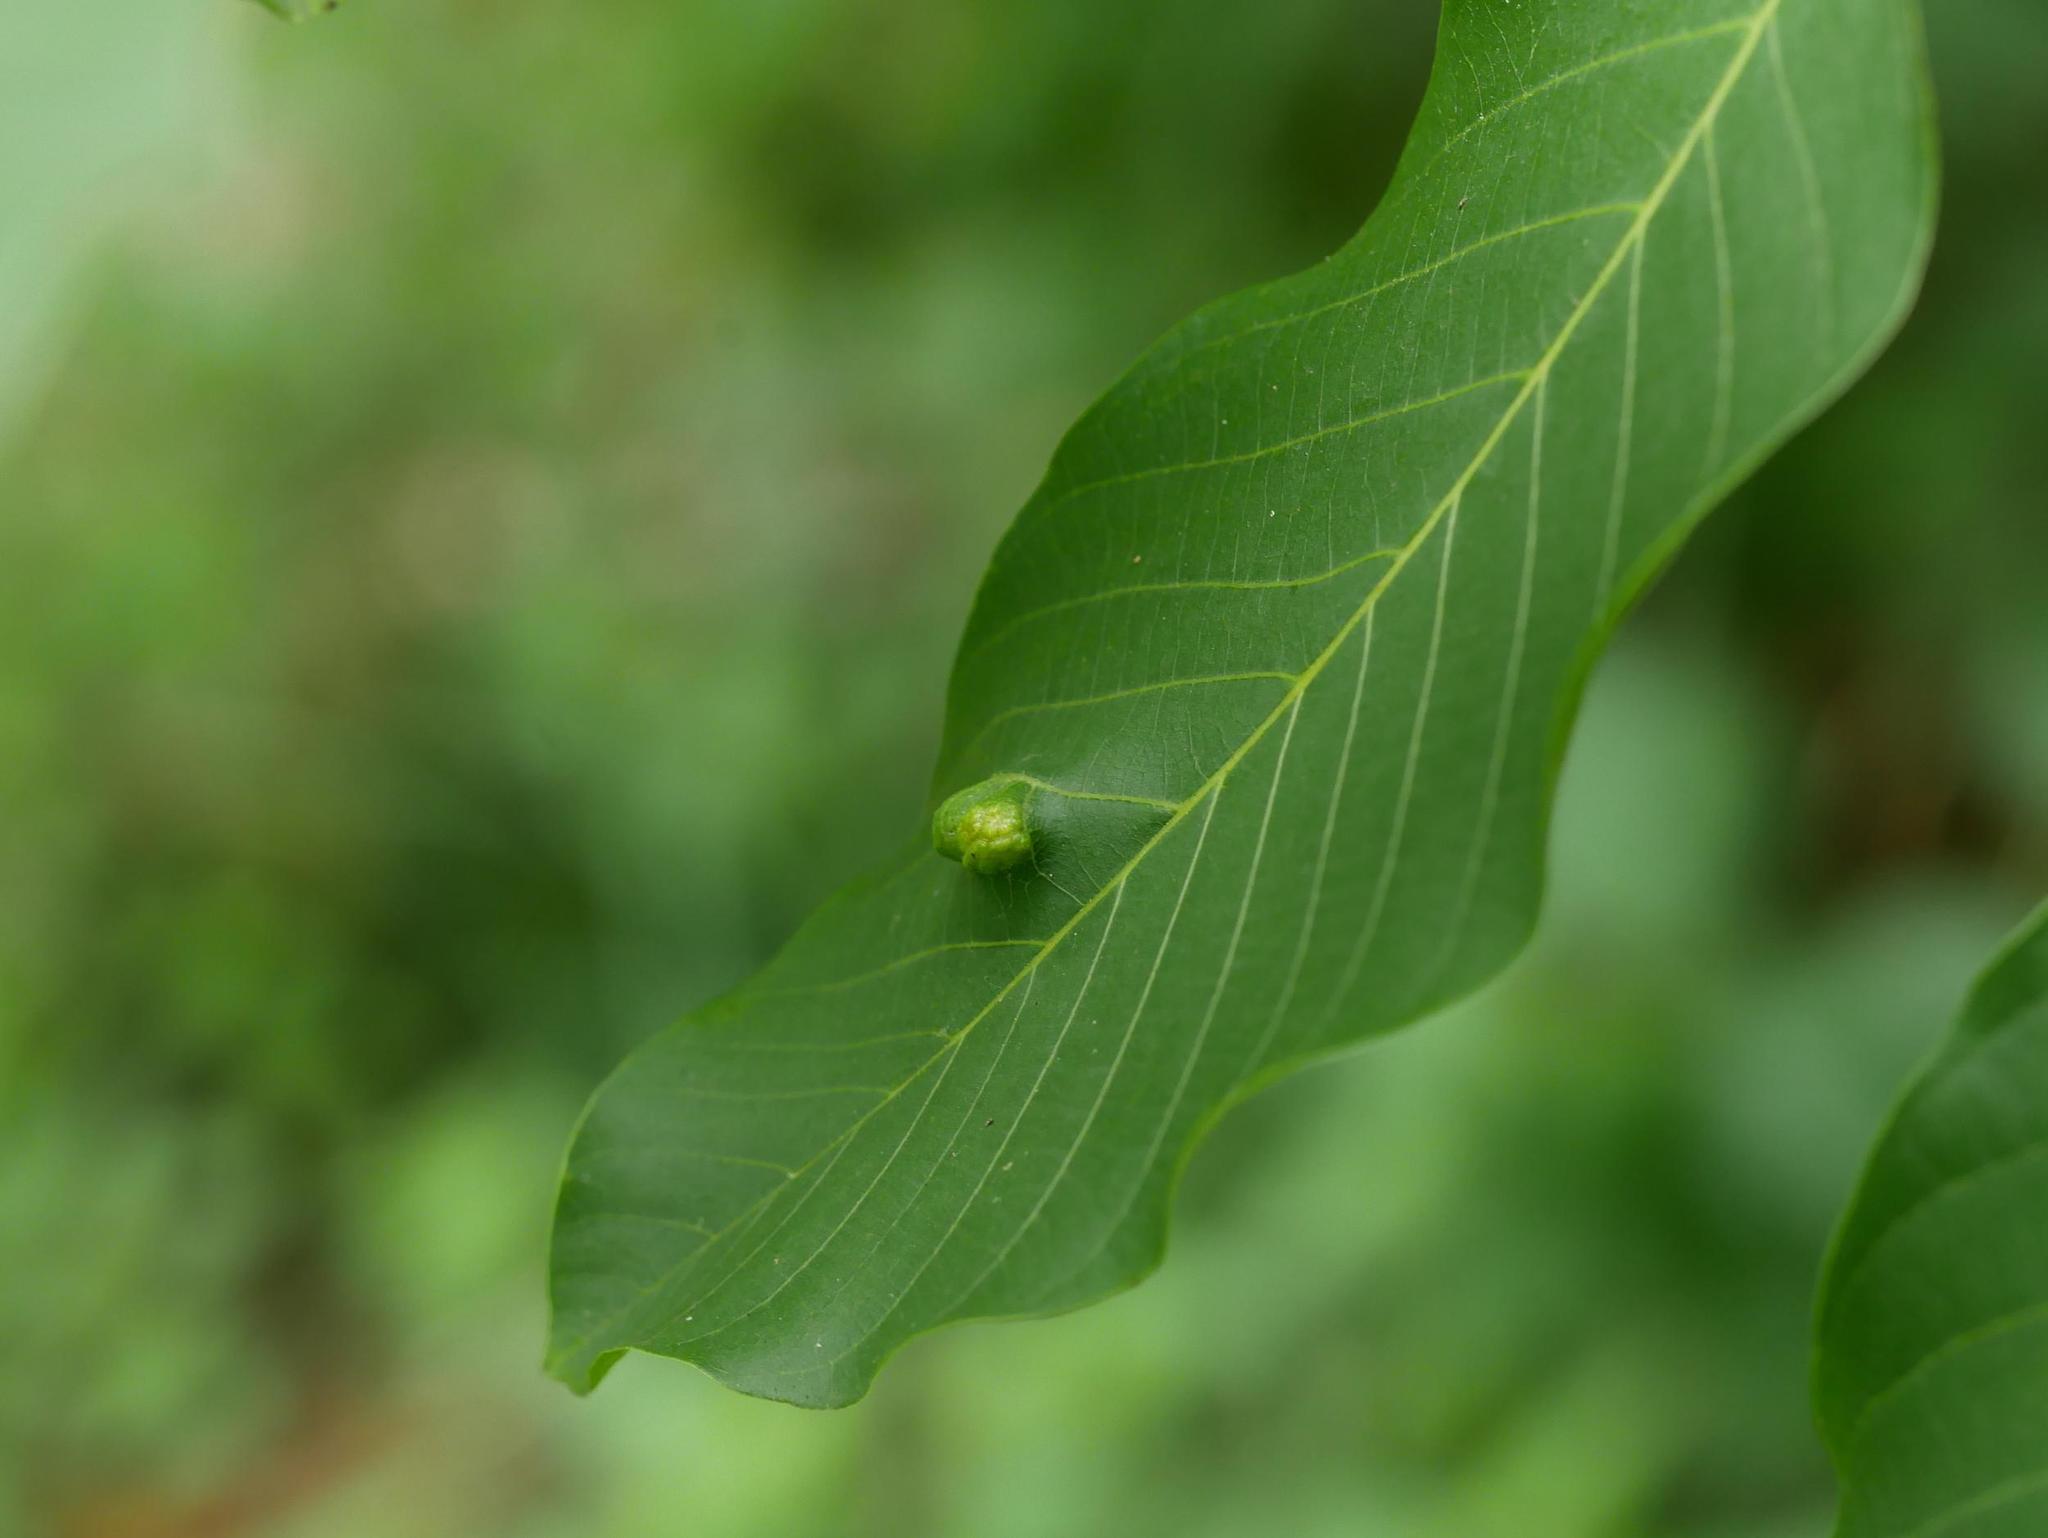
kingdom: Animalia
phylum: Arthropoda
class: Arachnida
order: Trombidiformes
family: Eriophyidae
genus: Aceria
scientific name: Aceria erinea
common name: Persian walnut erineum mite
